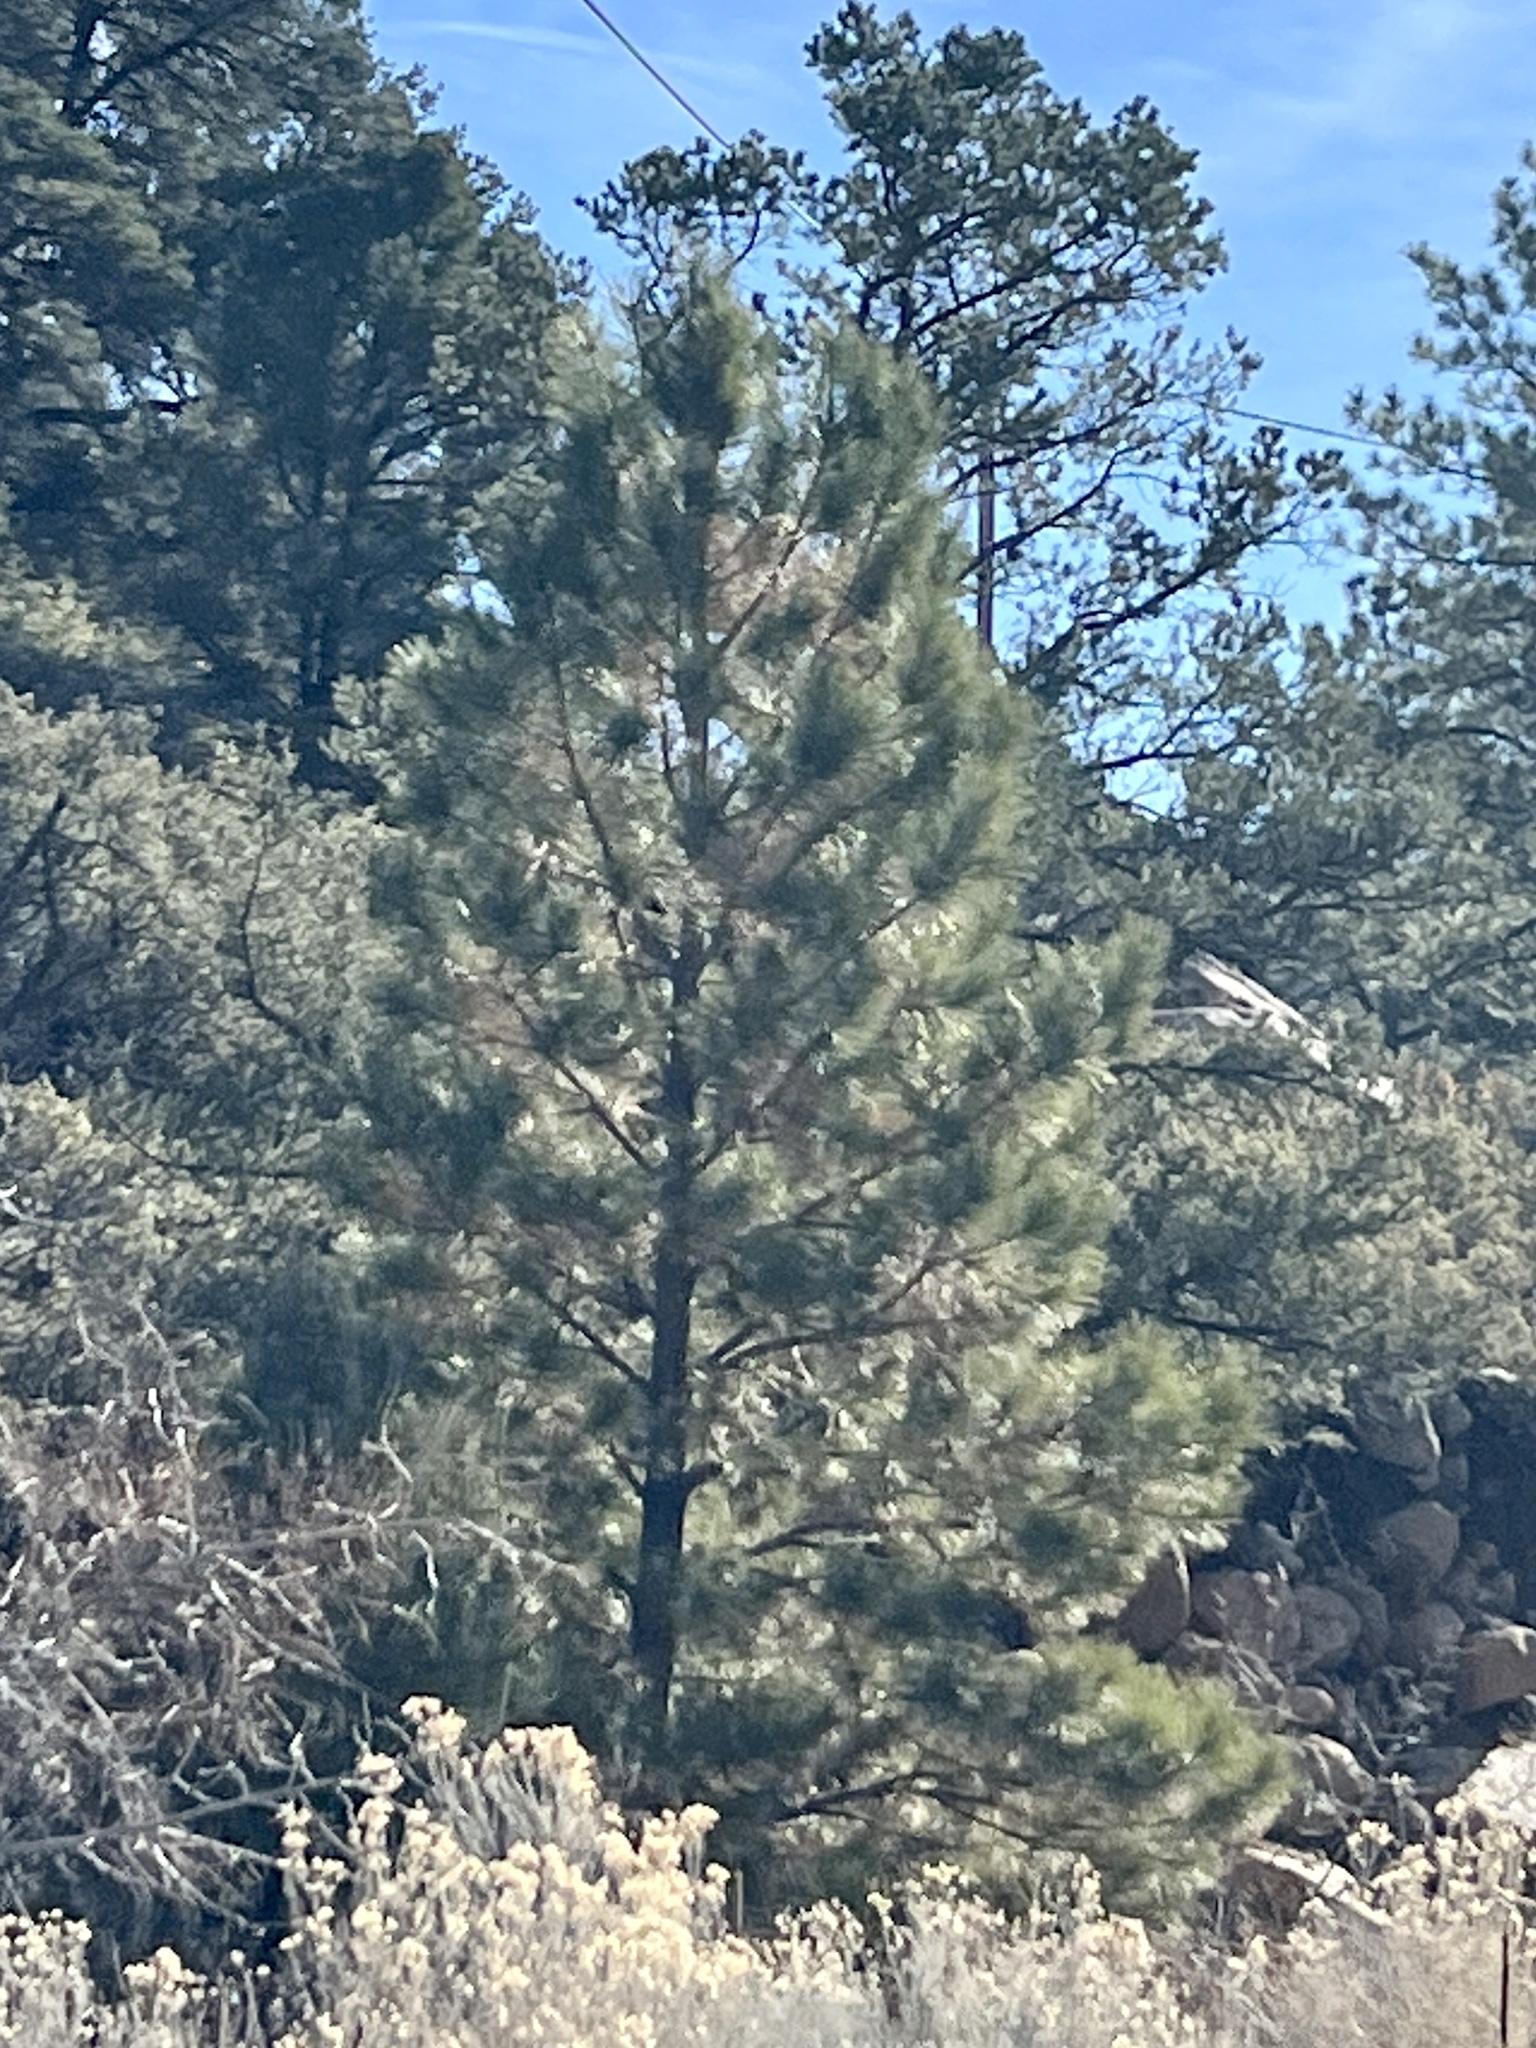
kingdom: Plantae
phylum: Tracheophyta
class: Pinopsida
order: Pinales
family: Pinaceae
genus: Pinus
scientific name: Pinus ponderosa
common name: Western yellow-pine
